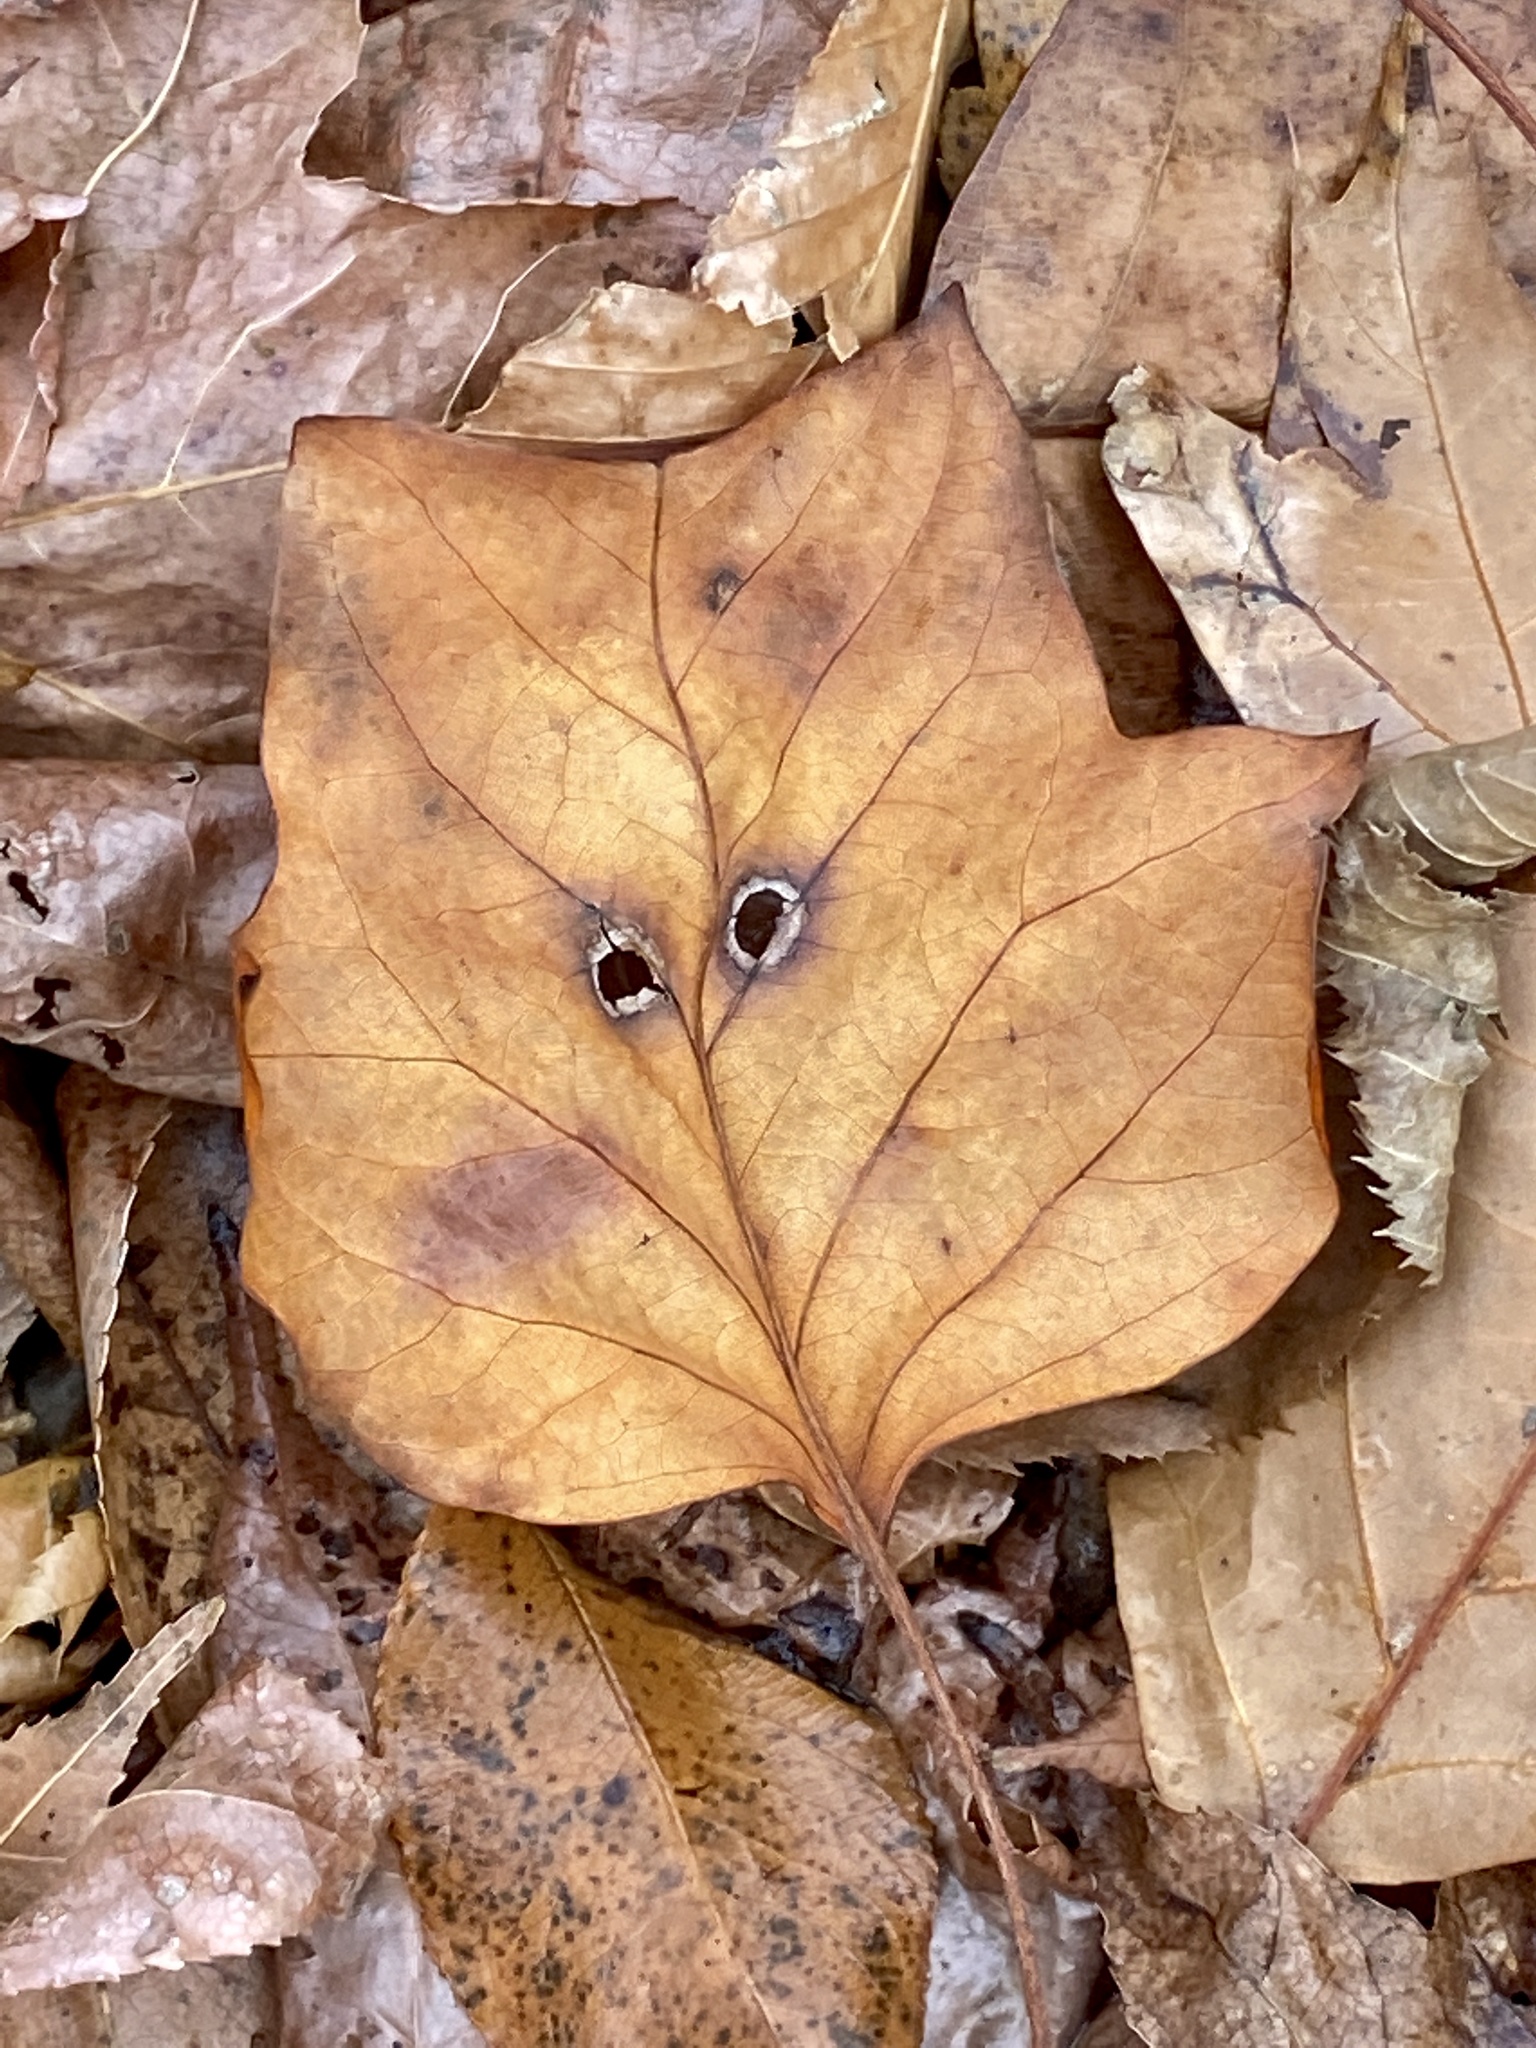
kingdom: Plantae
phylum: Tracheophyta
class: Magnoliopsida
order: Magnoliales
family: Magnoliaceae
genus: Liriodendron
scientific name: Liriodendron tulipifera
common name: Tulip tree
